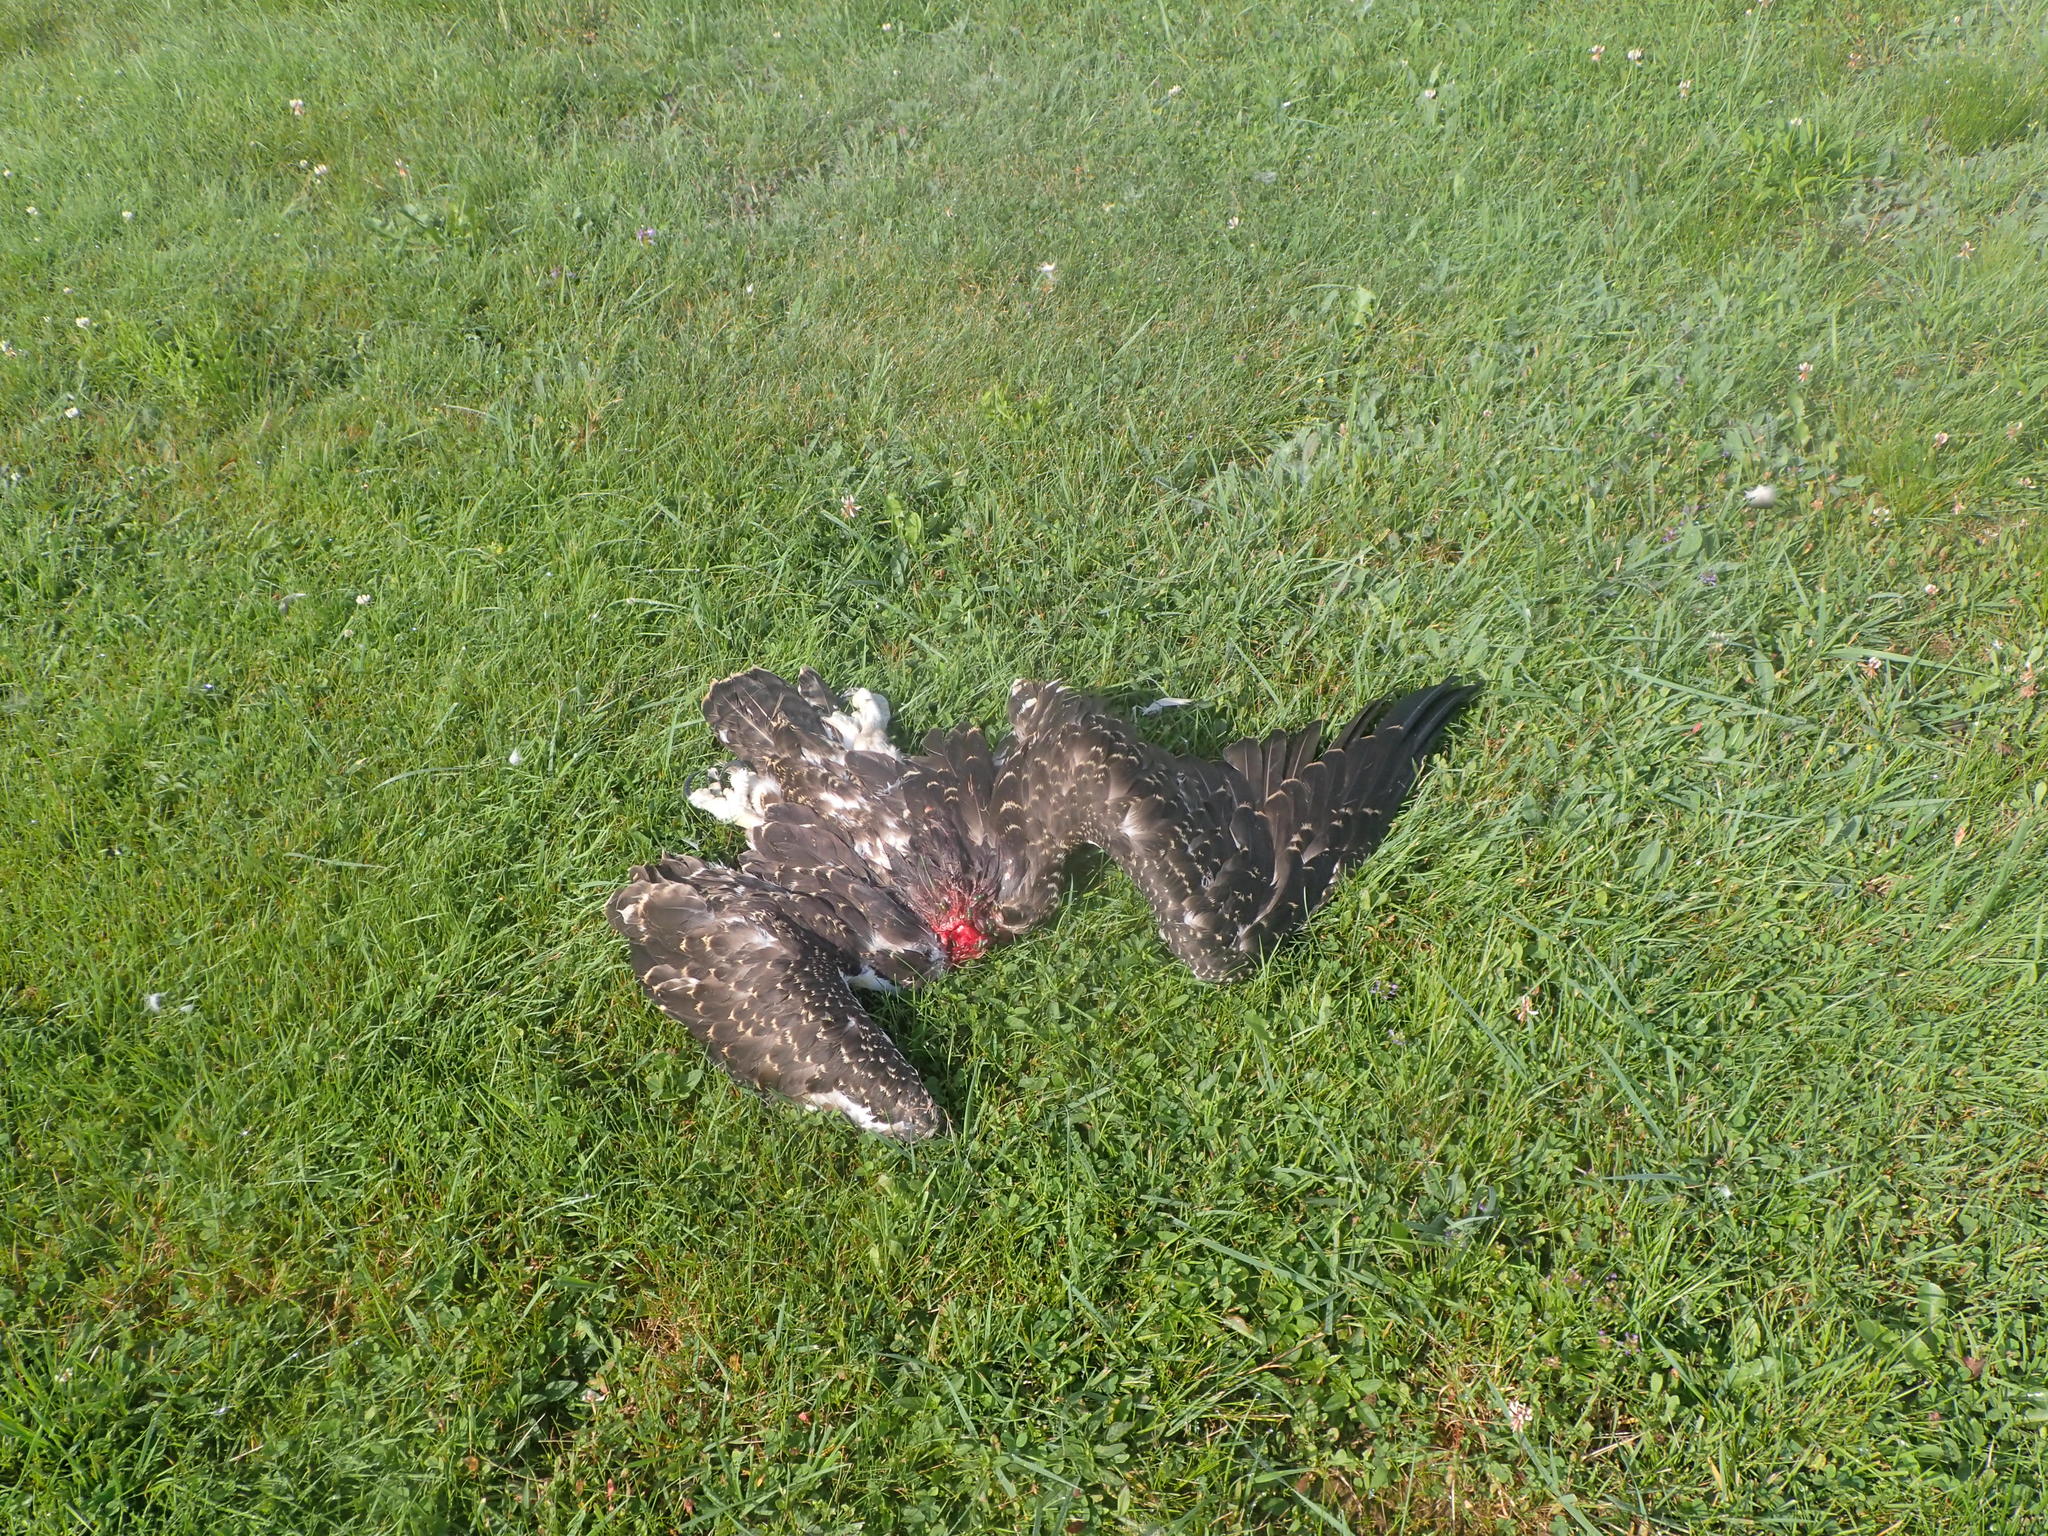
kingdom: Animalia
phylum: Chordata
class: Aves
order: Accipitriformes
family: Pandionidae
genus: Pandion
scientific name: Pandion haliaetus
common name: Osprey
